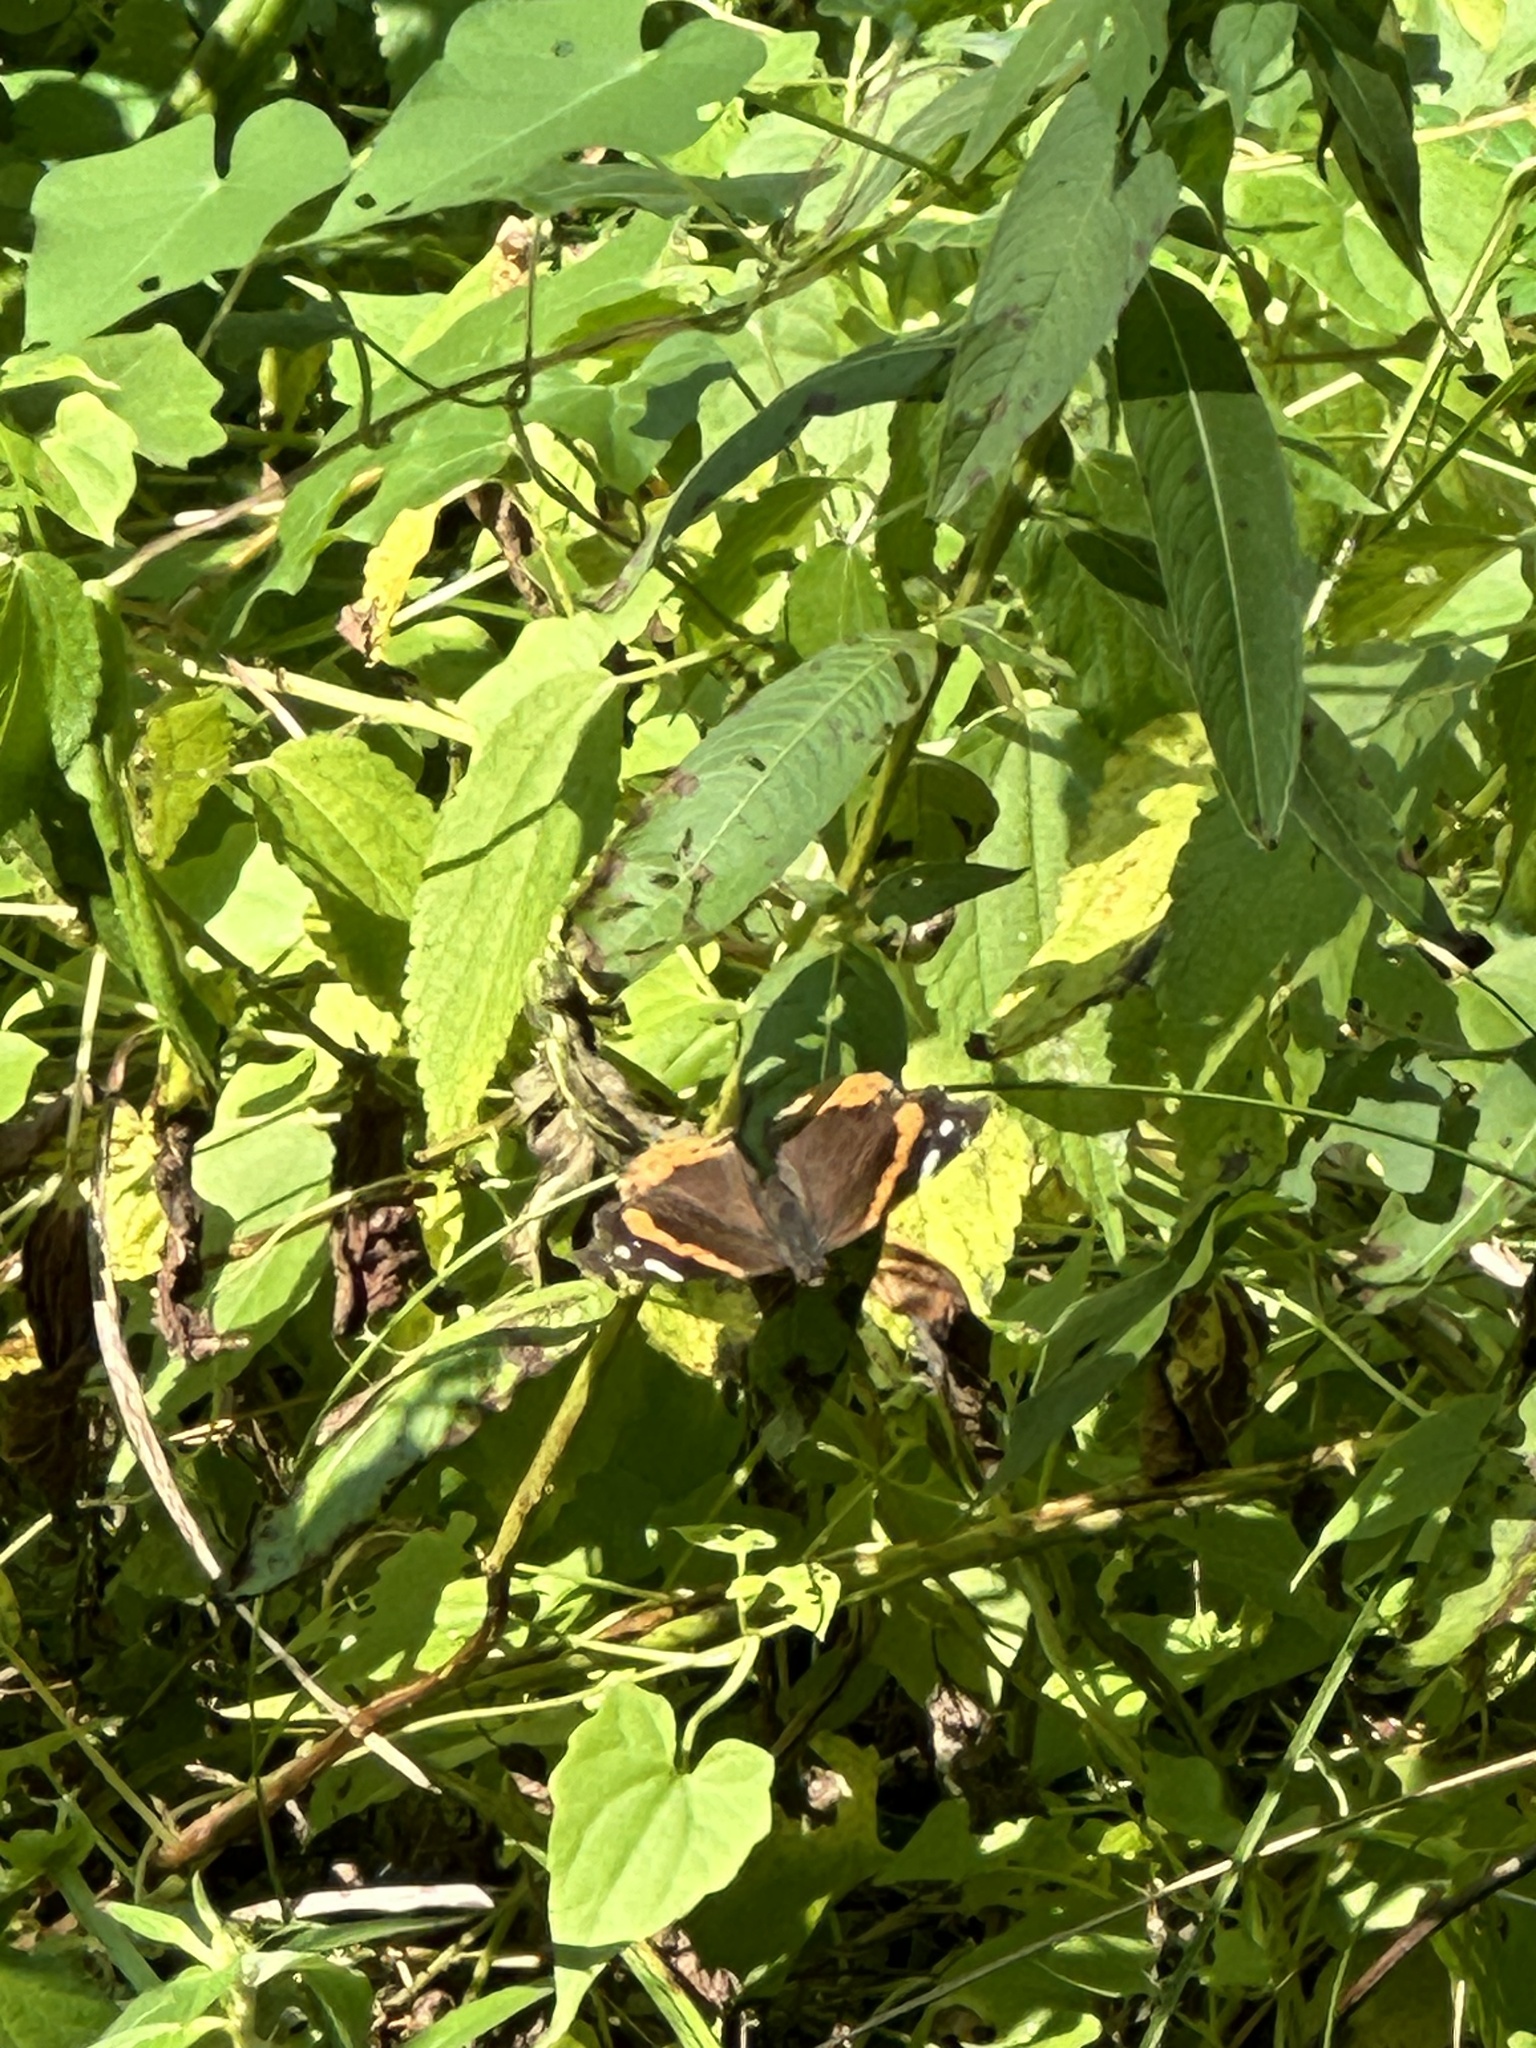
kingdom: Animalia
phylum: Arthropoda
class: Insecta
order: Lepidoptera
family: Nymphalidae
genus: Vanessa
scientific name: Vanessa atalanta
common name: Red admiral
